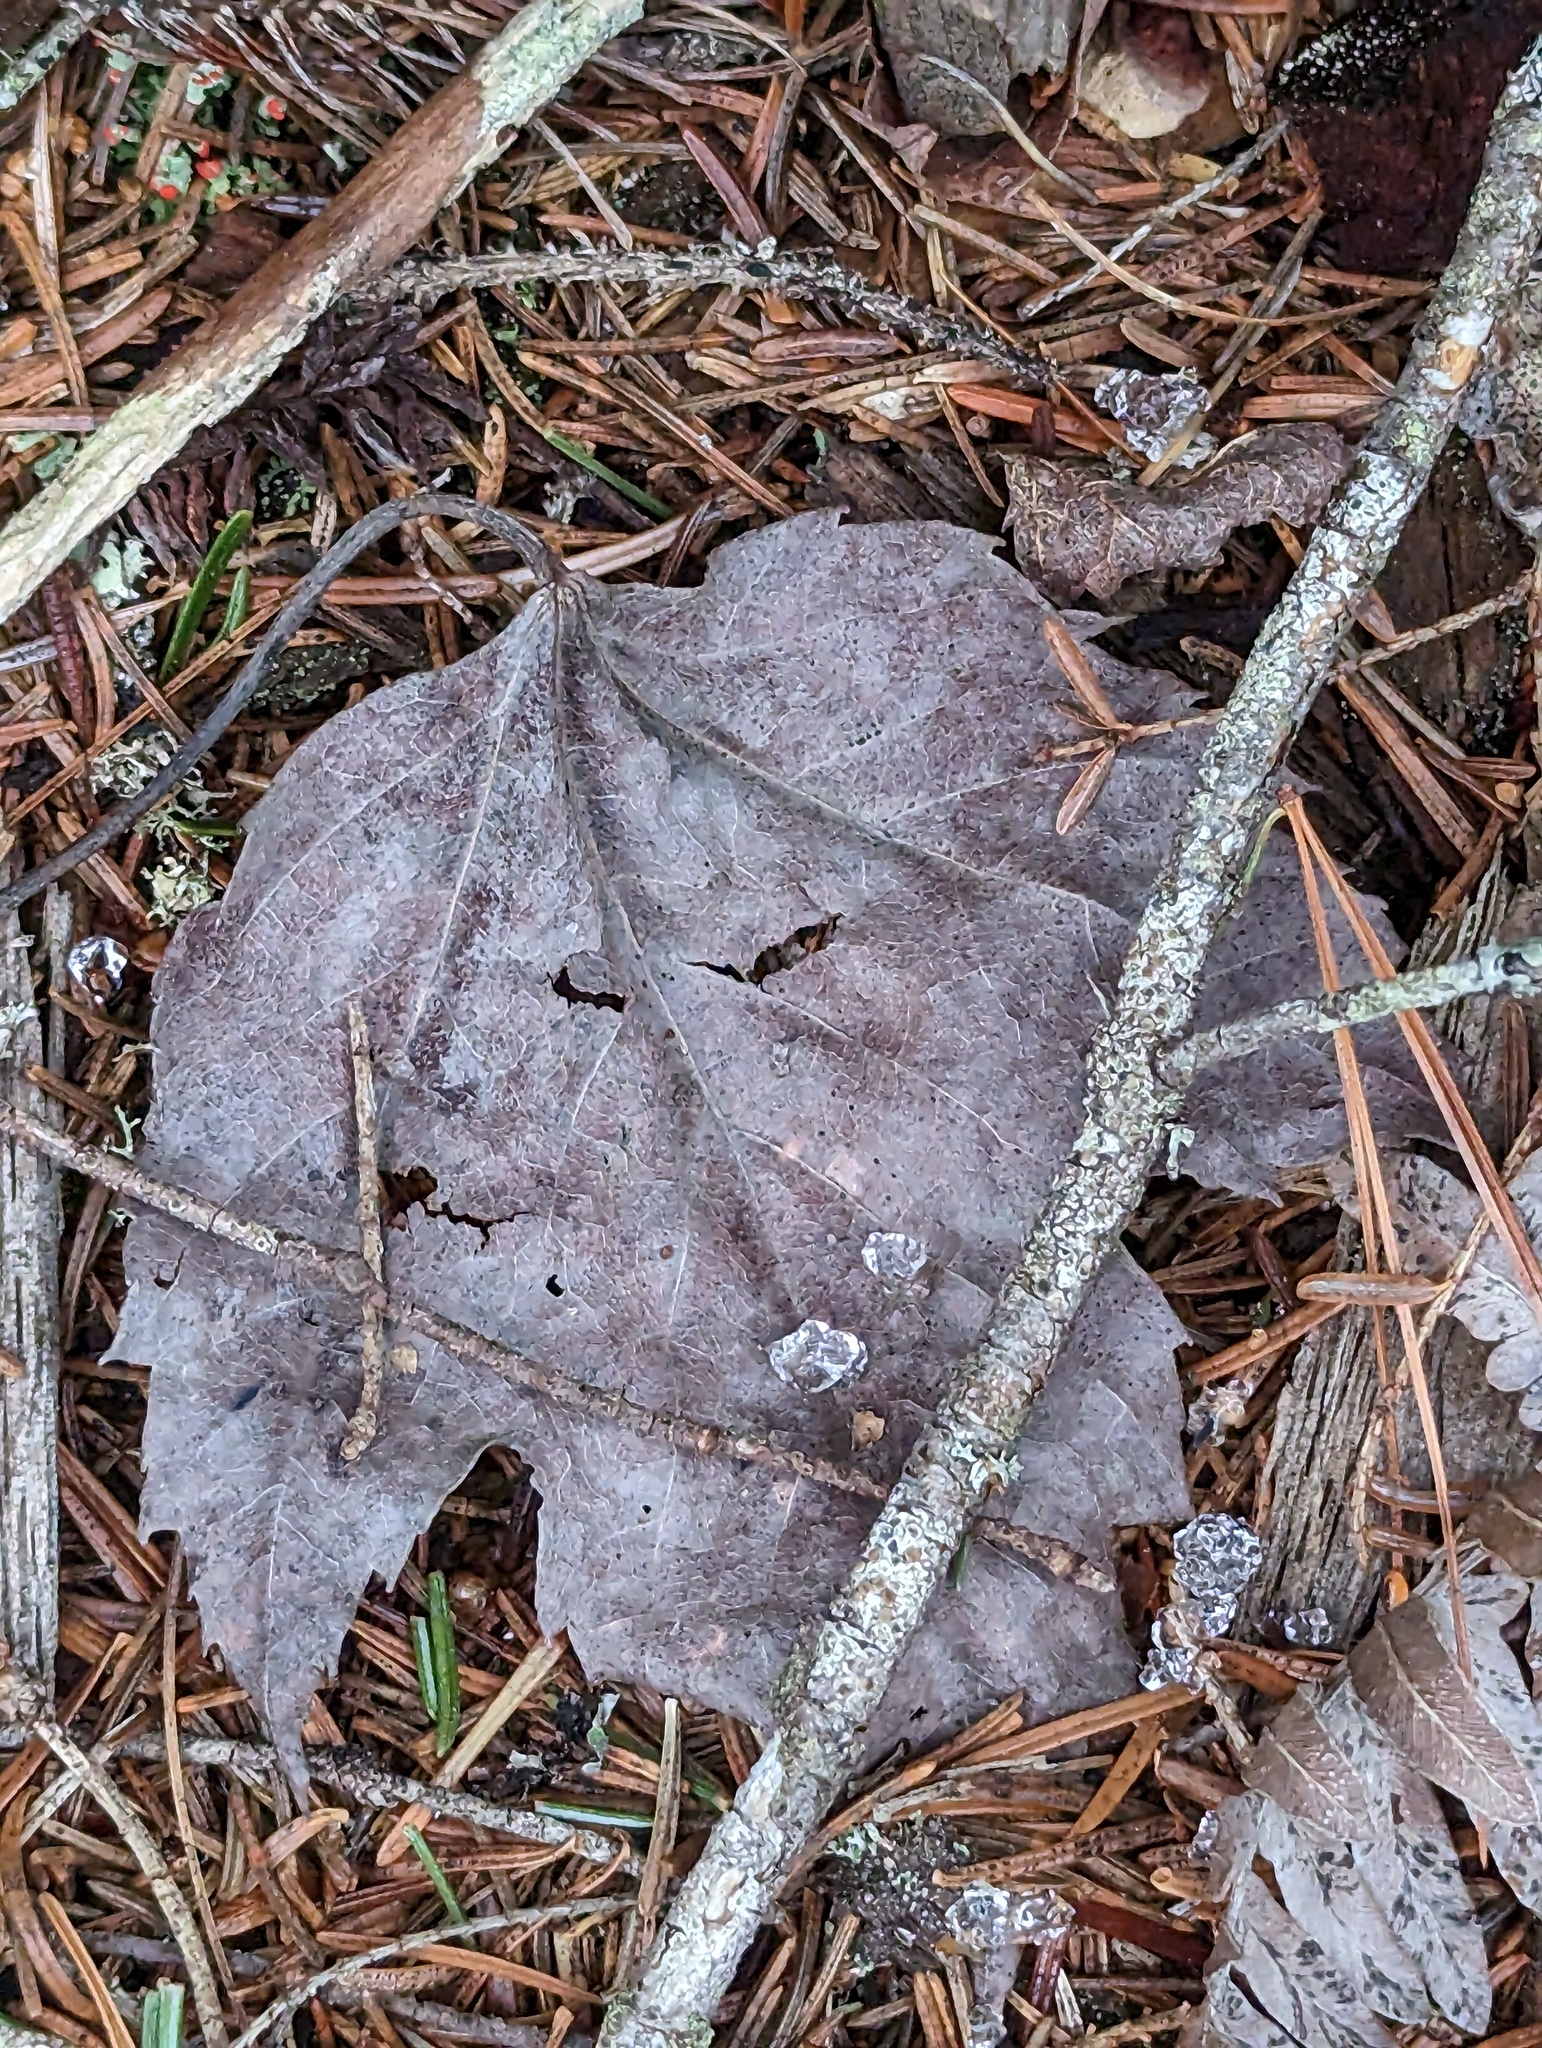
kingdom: Plantae
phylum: Tracheophyta
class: Magnoliopsida
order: Sapindales
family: Sapindaceae
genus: Acer
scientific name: Acer rubrum
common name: Red maple
